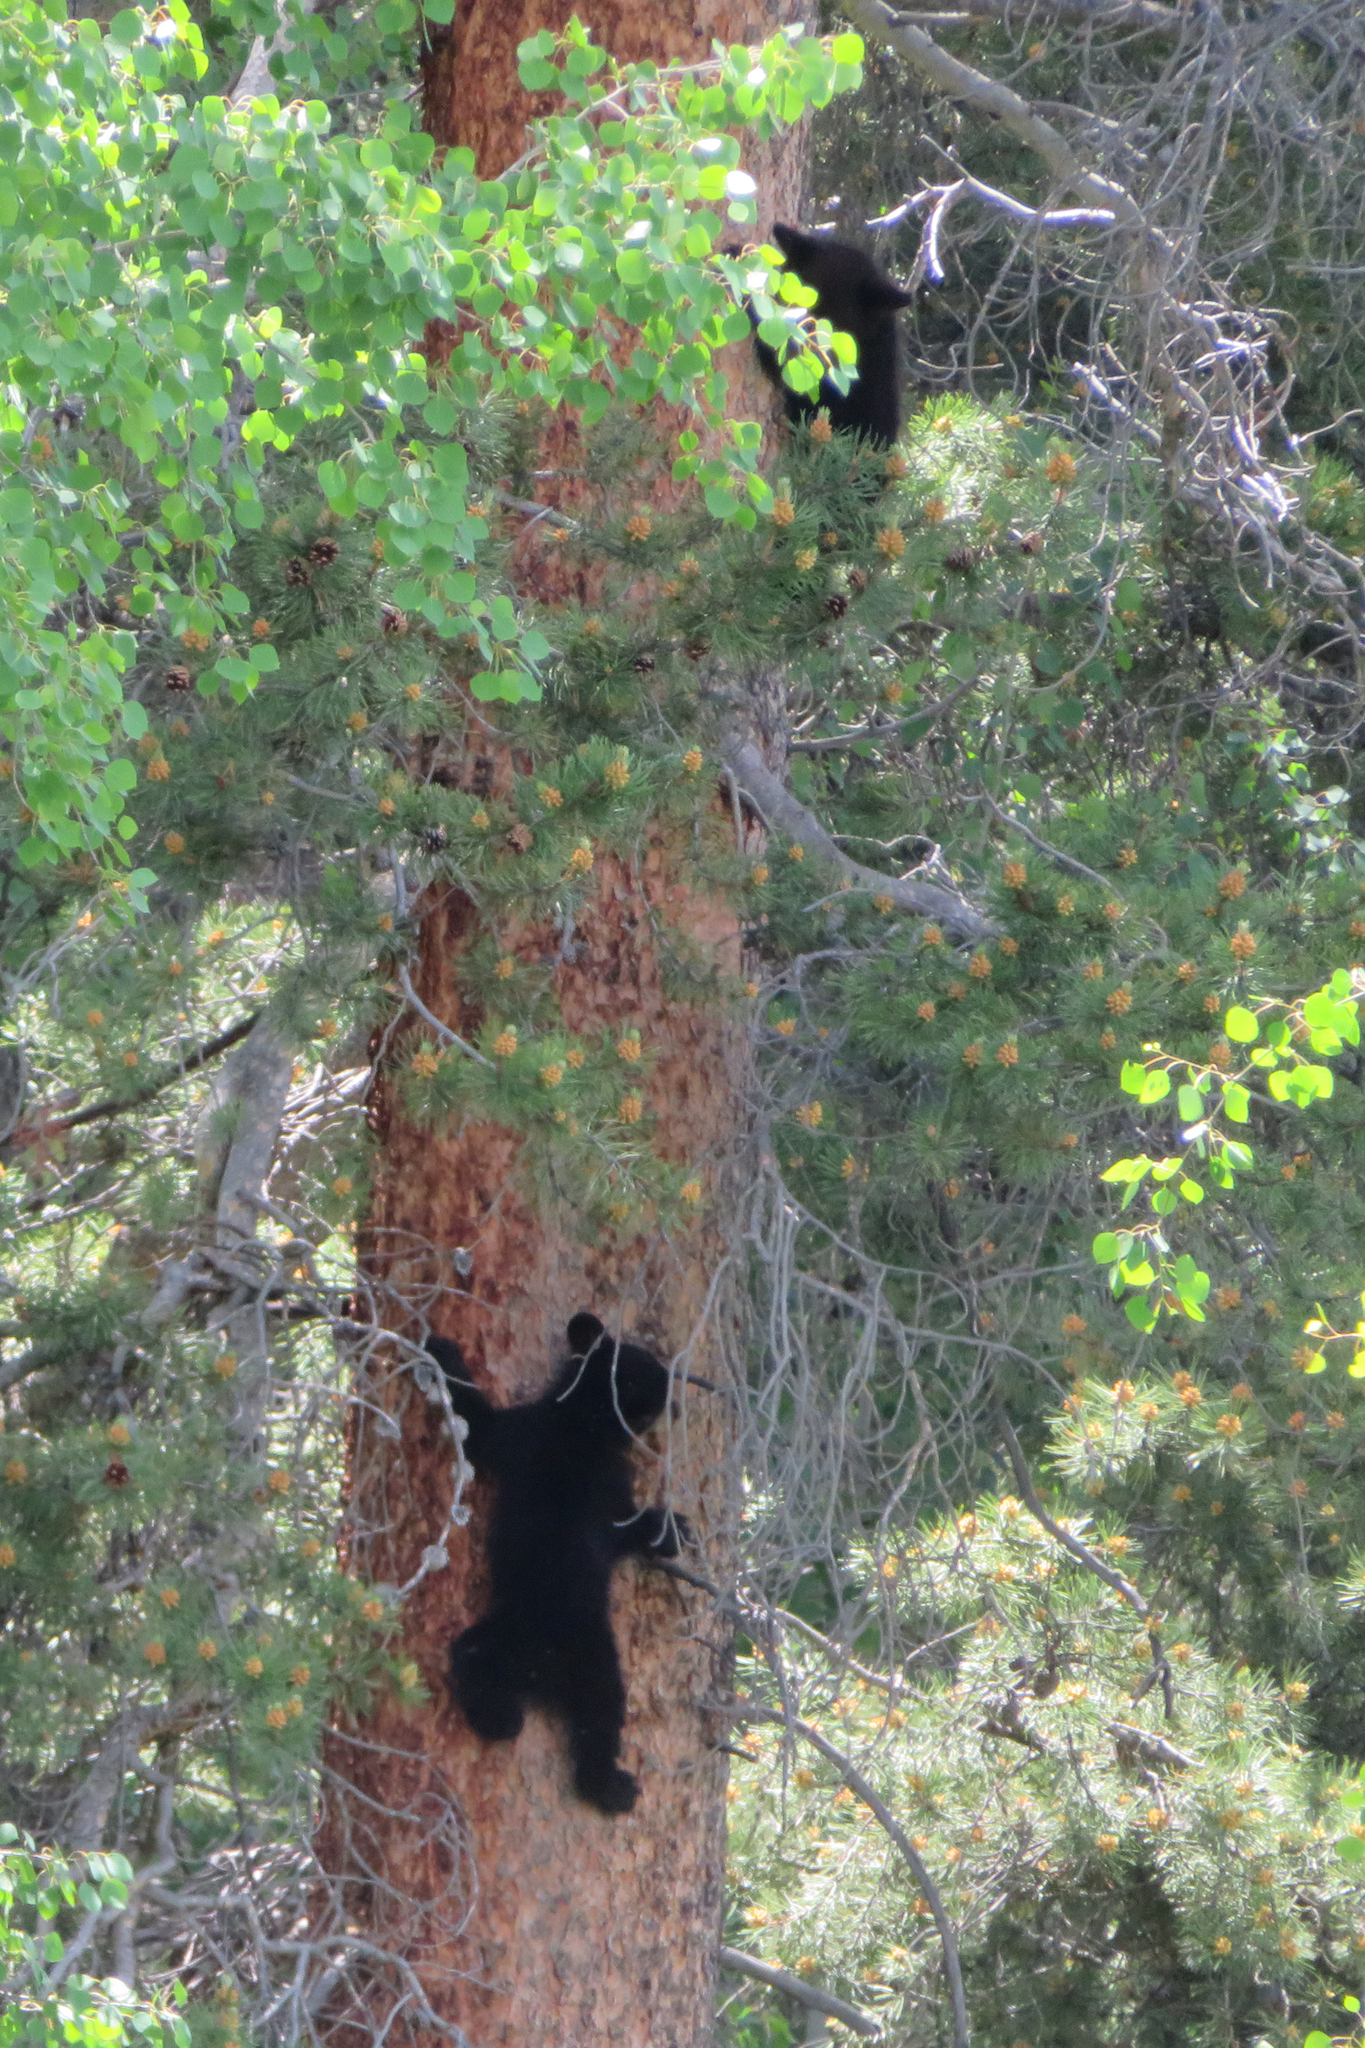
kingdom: Animalia
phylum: Chordata
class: Mammalia
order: Carnivora
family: Ursidae
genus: Ursus
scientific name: Ursus americanus
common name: American black bear
